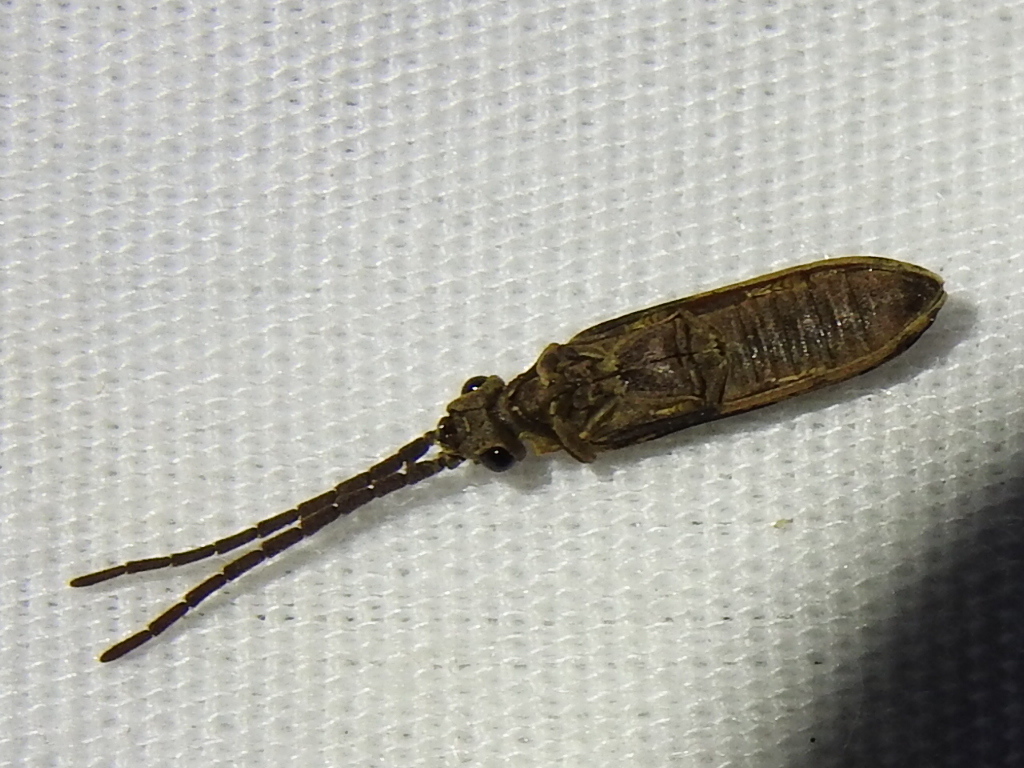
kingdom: Animalia
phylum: Arthropoda
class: Insecta
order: Coleoptera
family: Cupedidae
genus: Tenomerga
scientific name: Tenomerga cinerea
